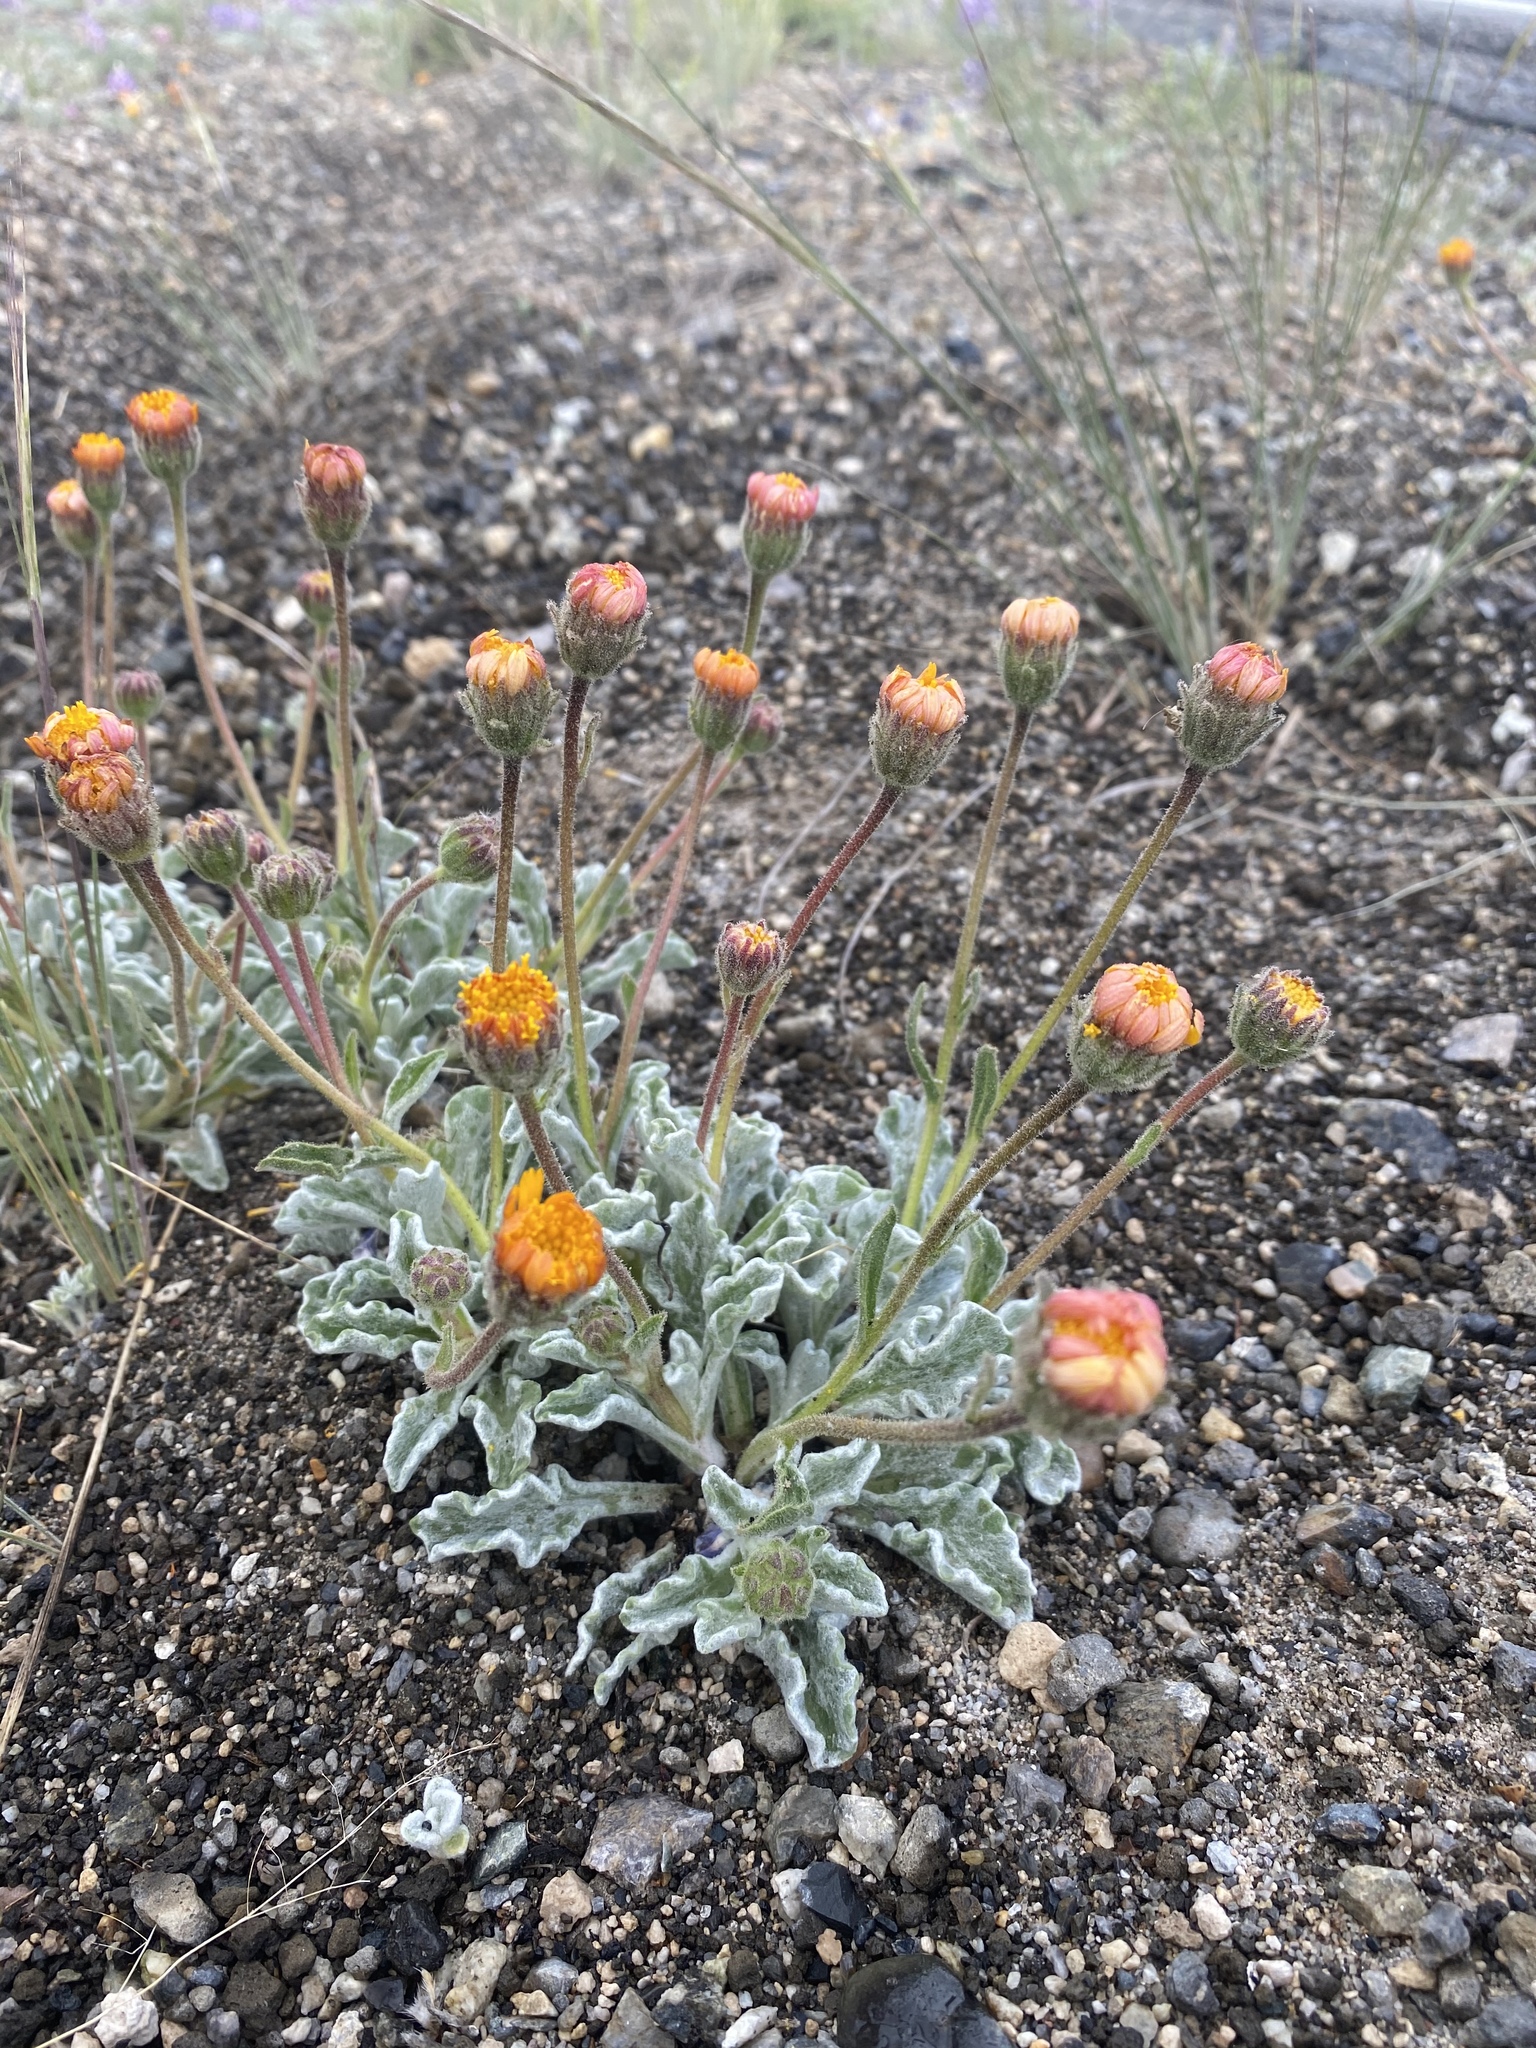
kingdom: Plantae
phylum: Tracheophyta
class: Magnoliopsida
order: Asterales
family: Asteraceae
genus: Hulsea
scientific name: Hulsea vestita
